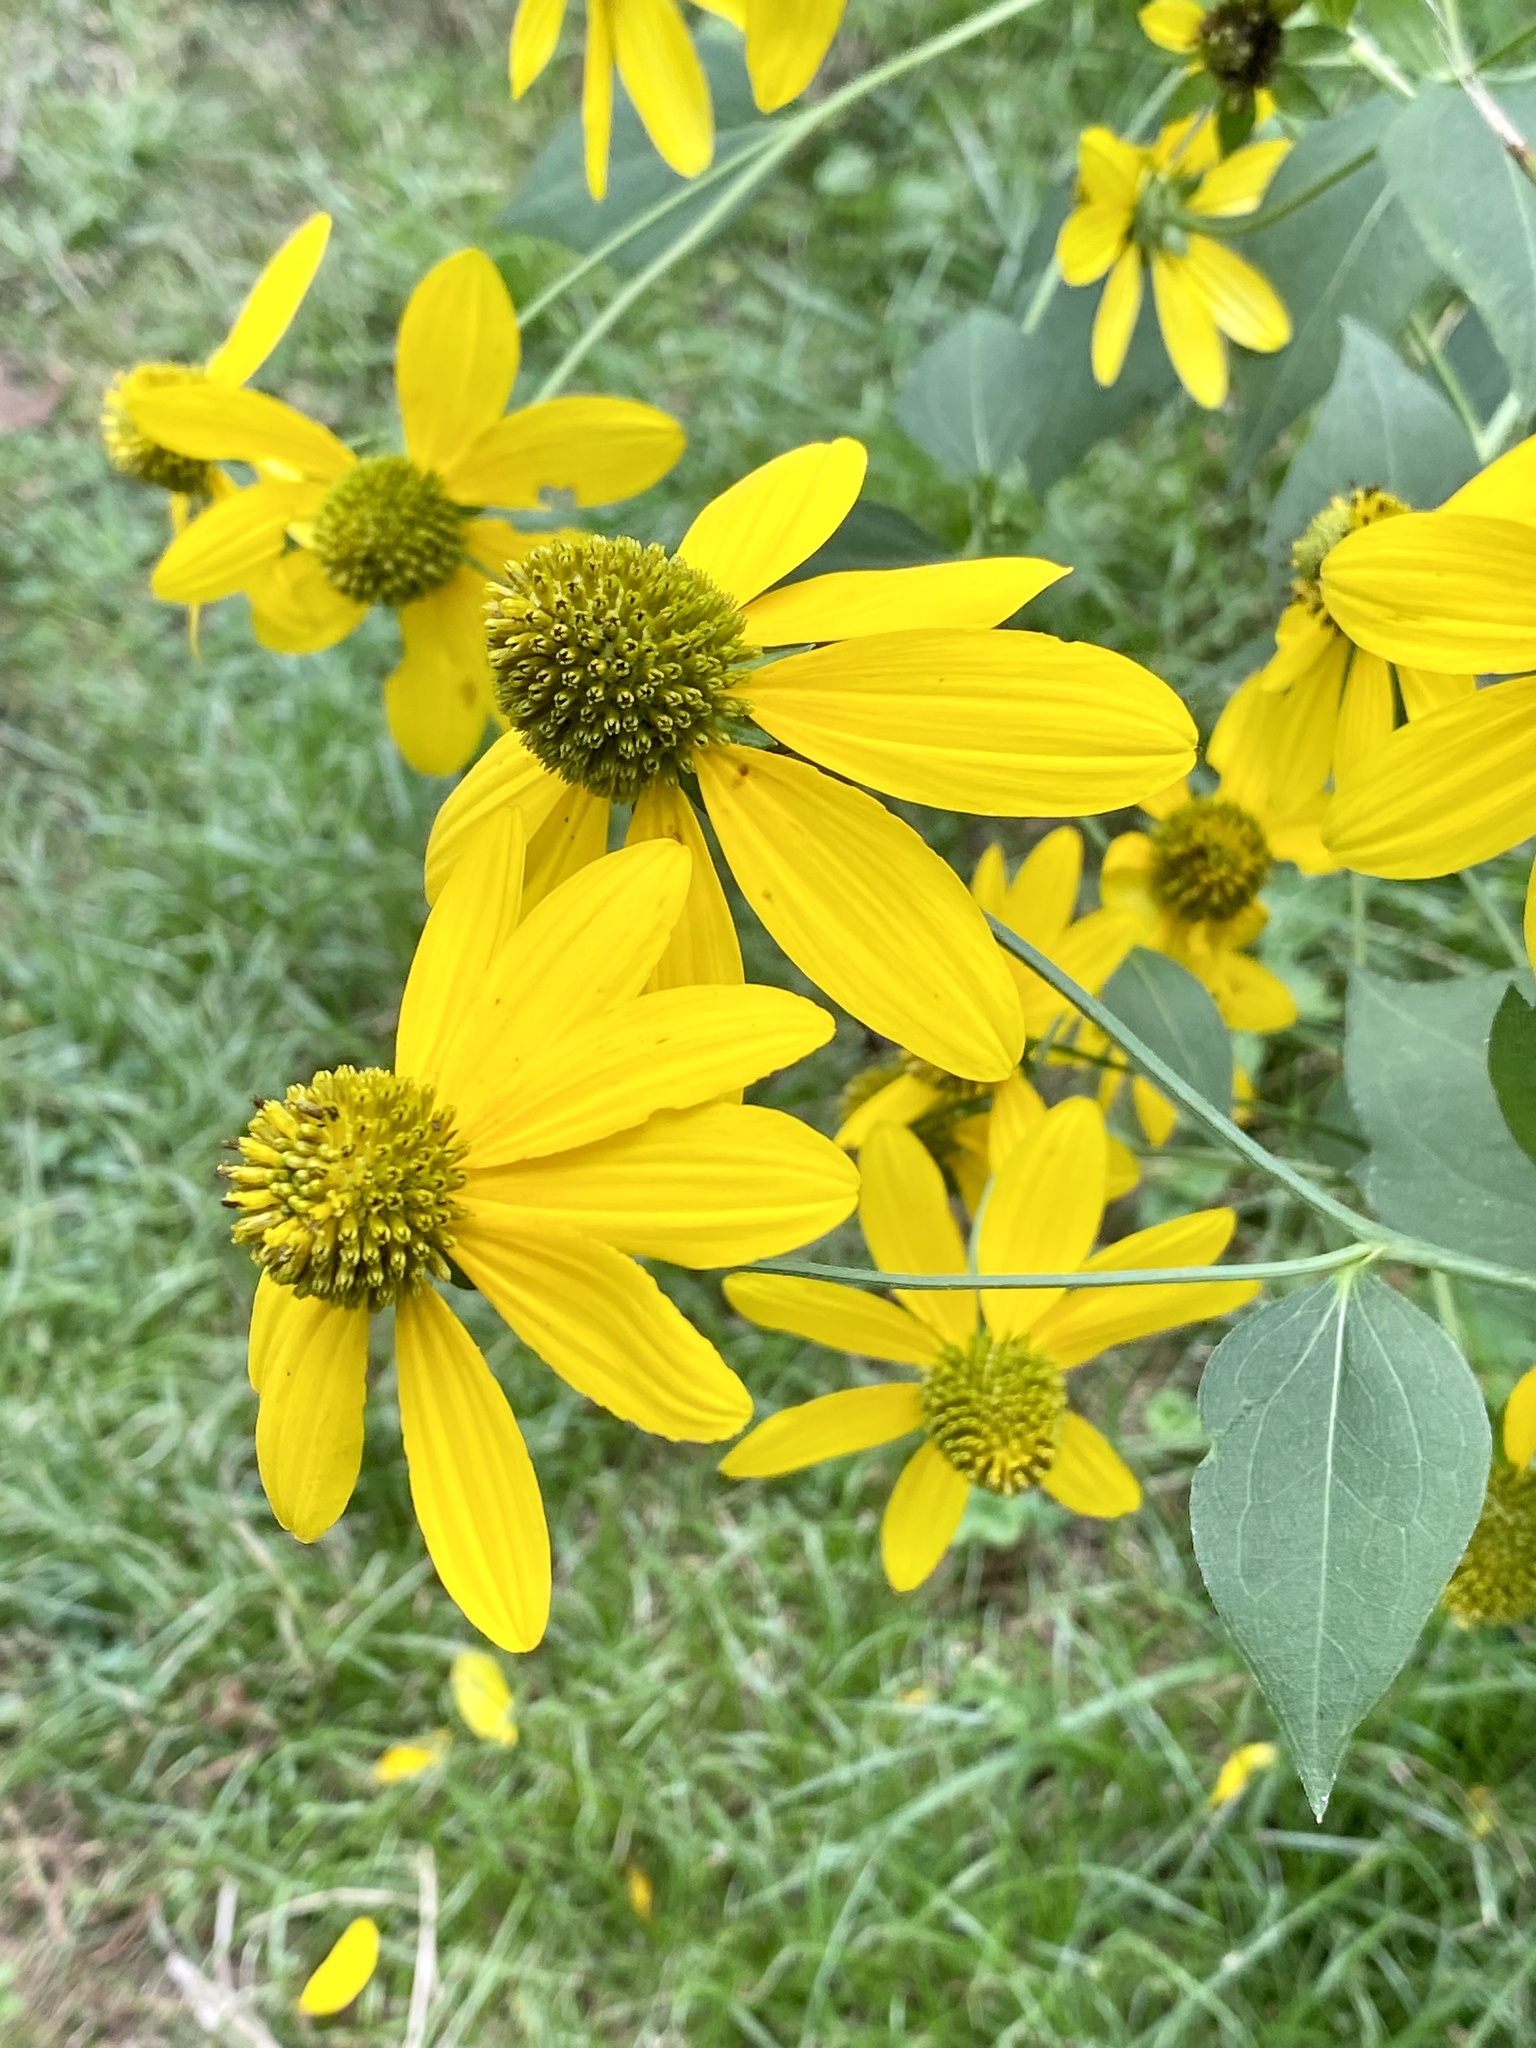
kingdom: Plantae
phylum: Tracheophyta
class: Magnoliopsida
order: Asterales
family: Asteraceae
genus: Rudbeckia
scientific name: Rudbeckia laciniata
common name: Coneflower
